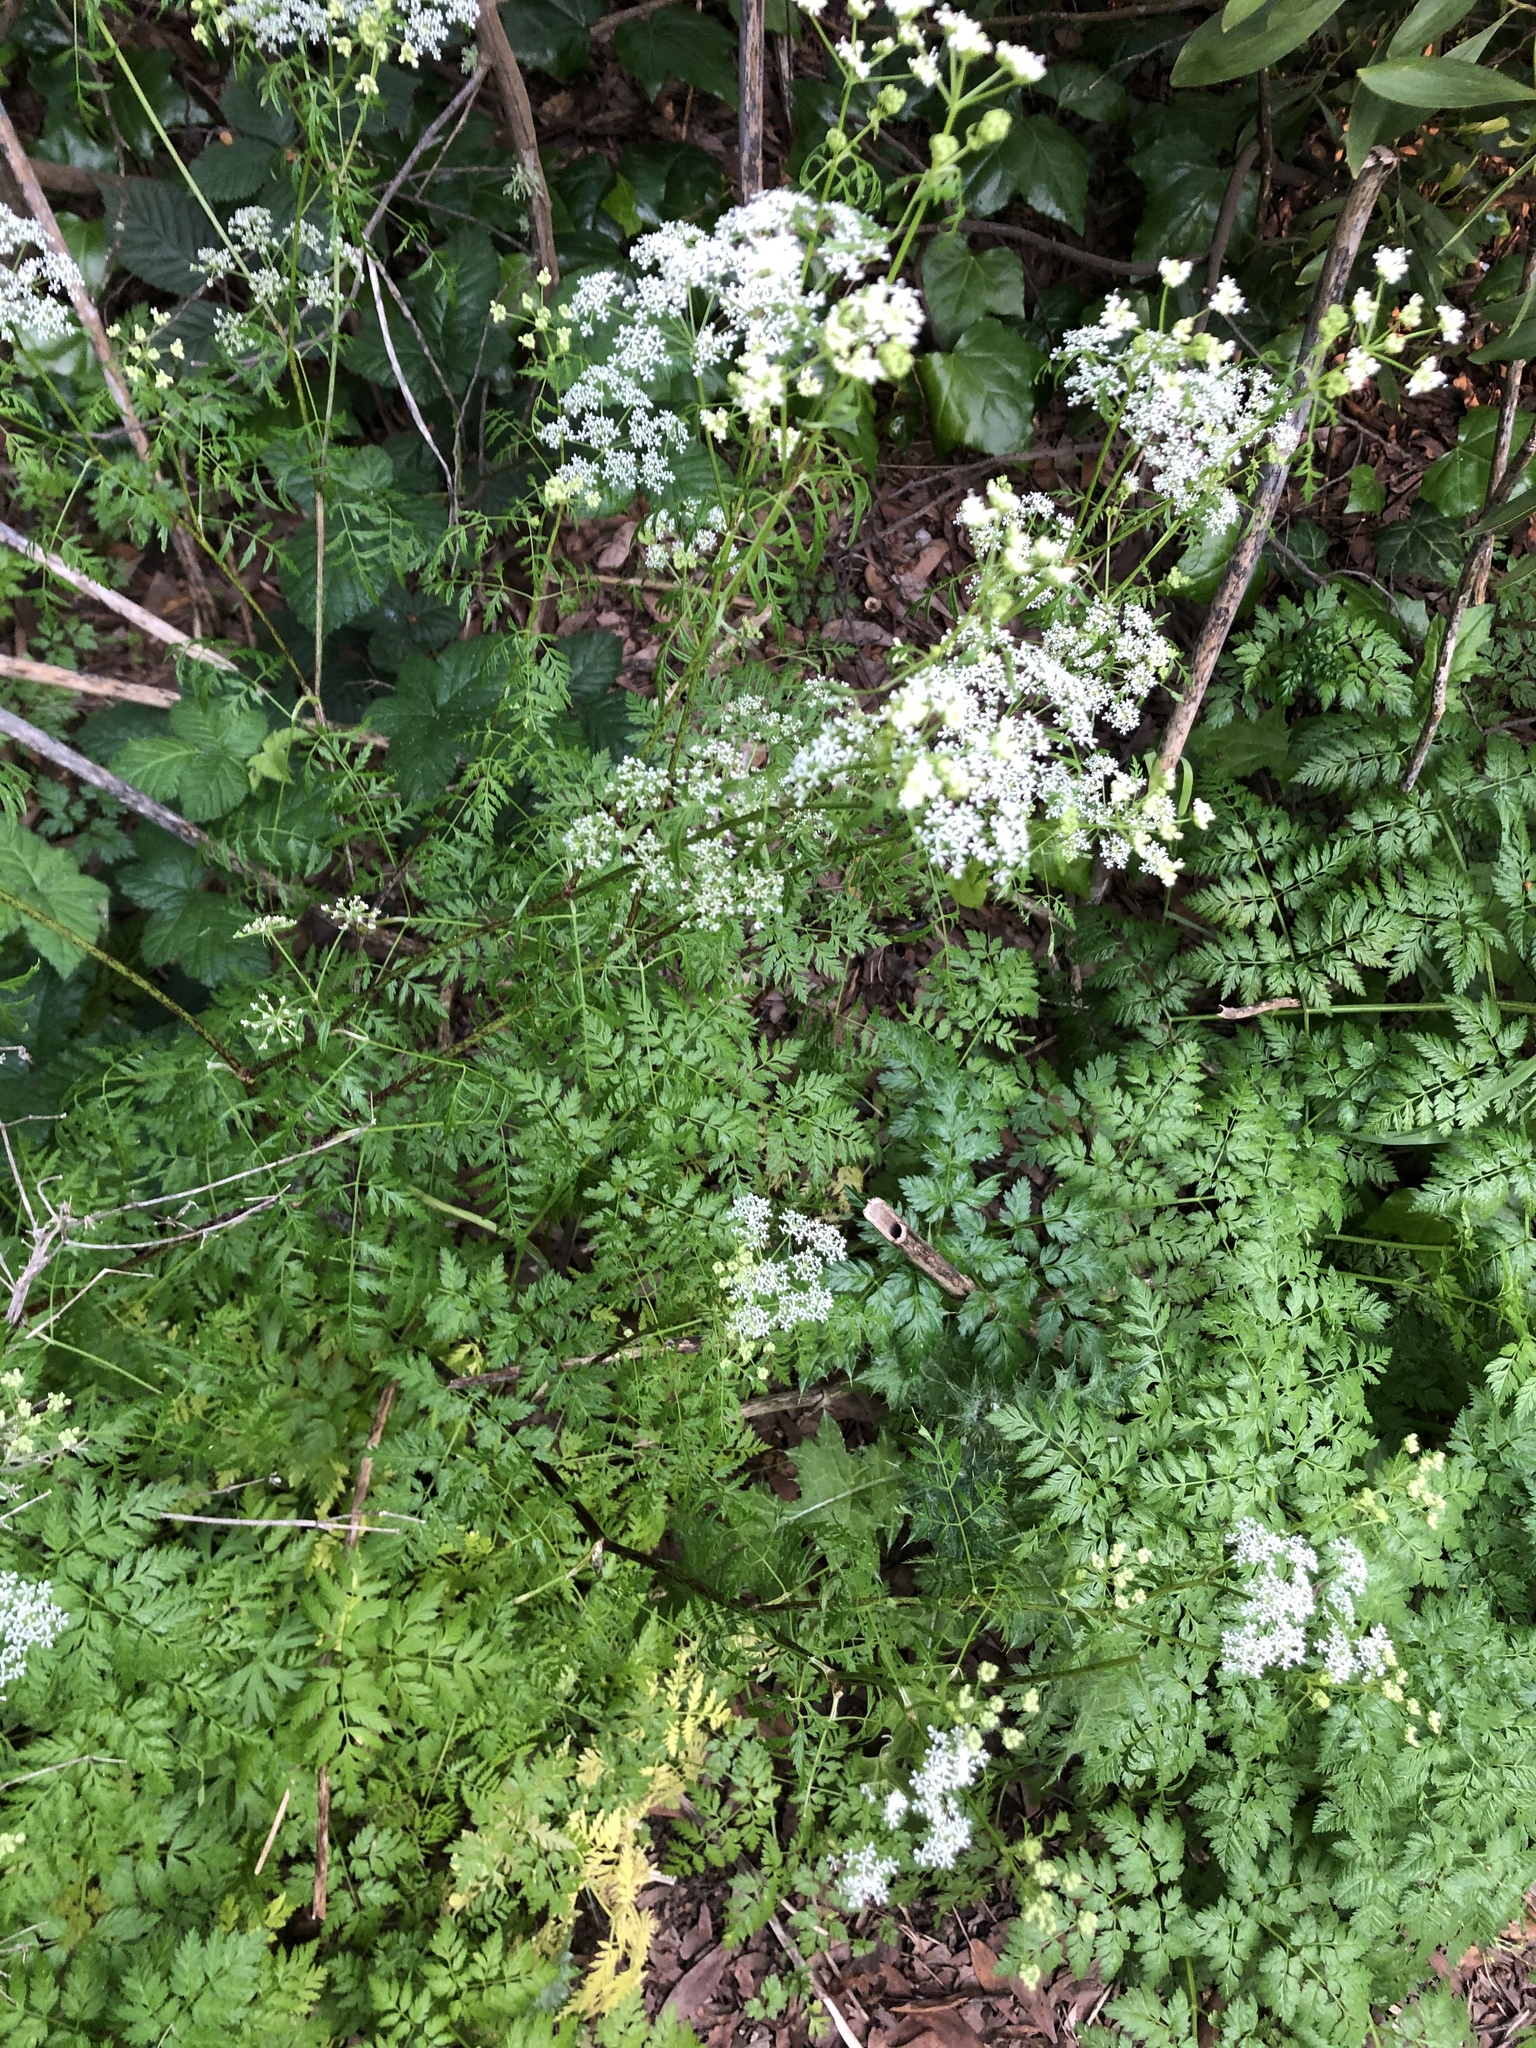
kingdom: Plantae
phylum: Tracheophyta
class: Magnoliopsida
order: Apiales
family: Apiaceae
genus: Conium
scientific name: Conium maculatum
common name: Hemlock
